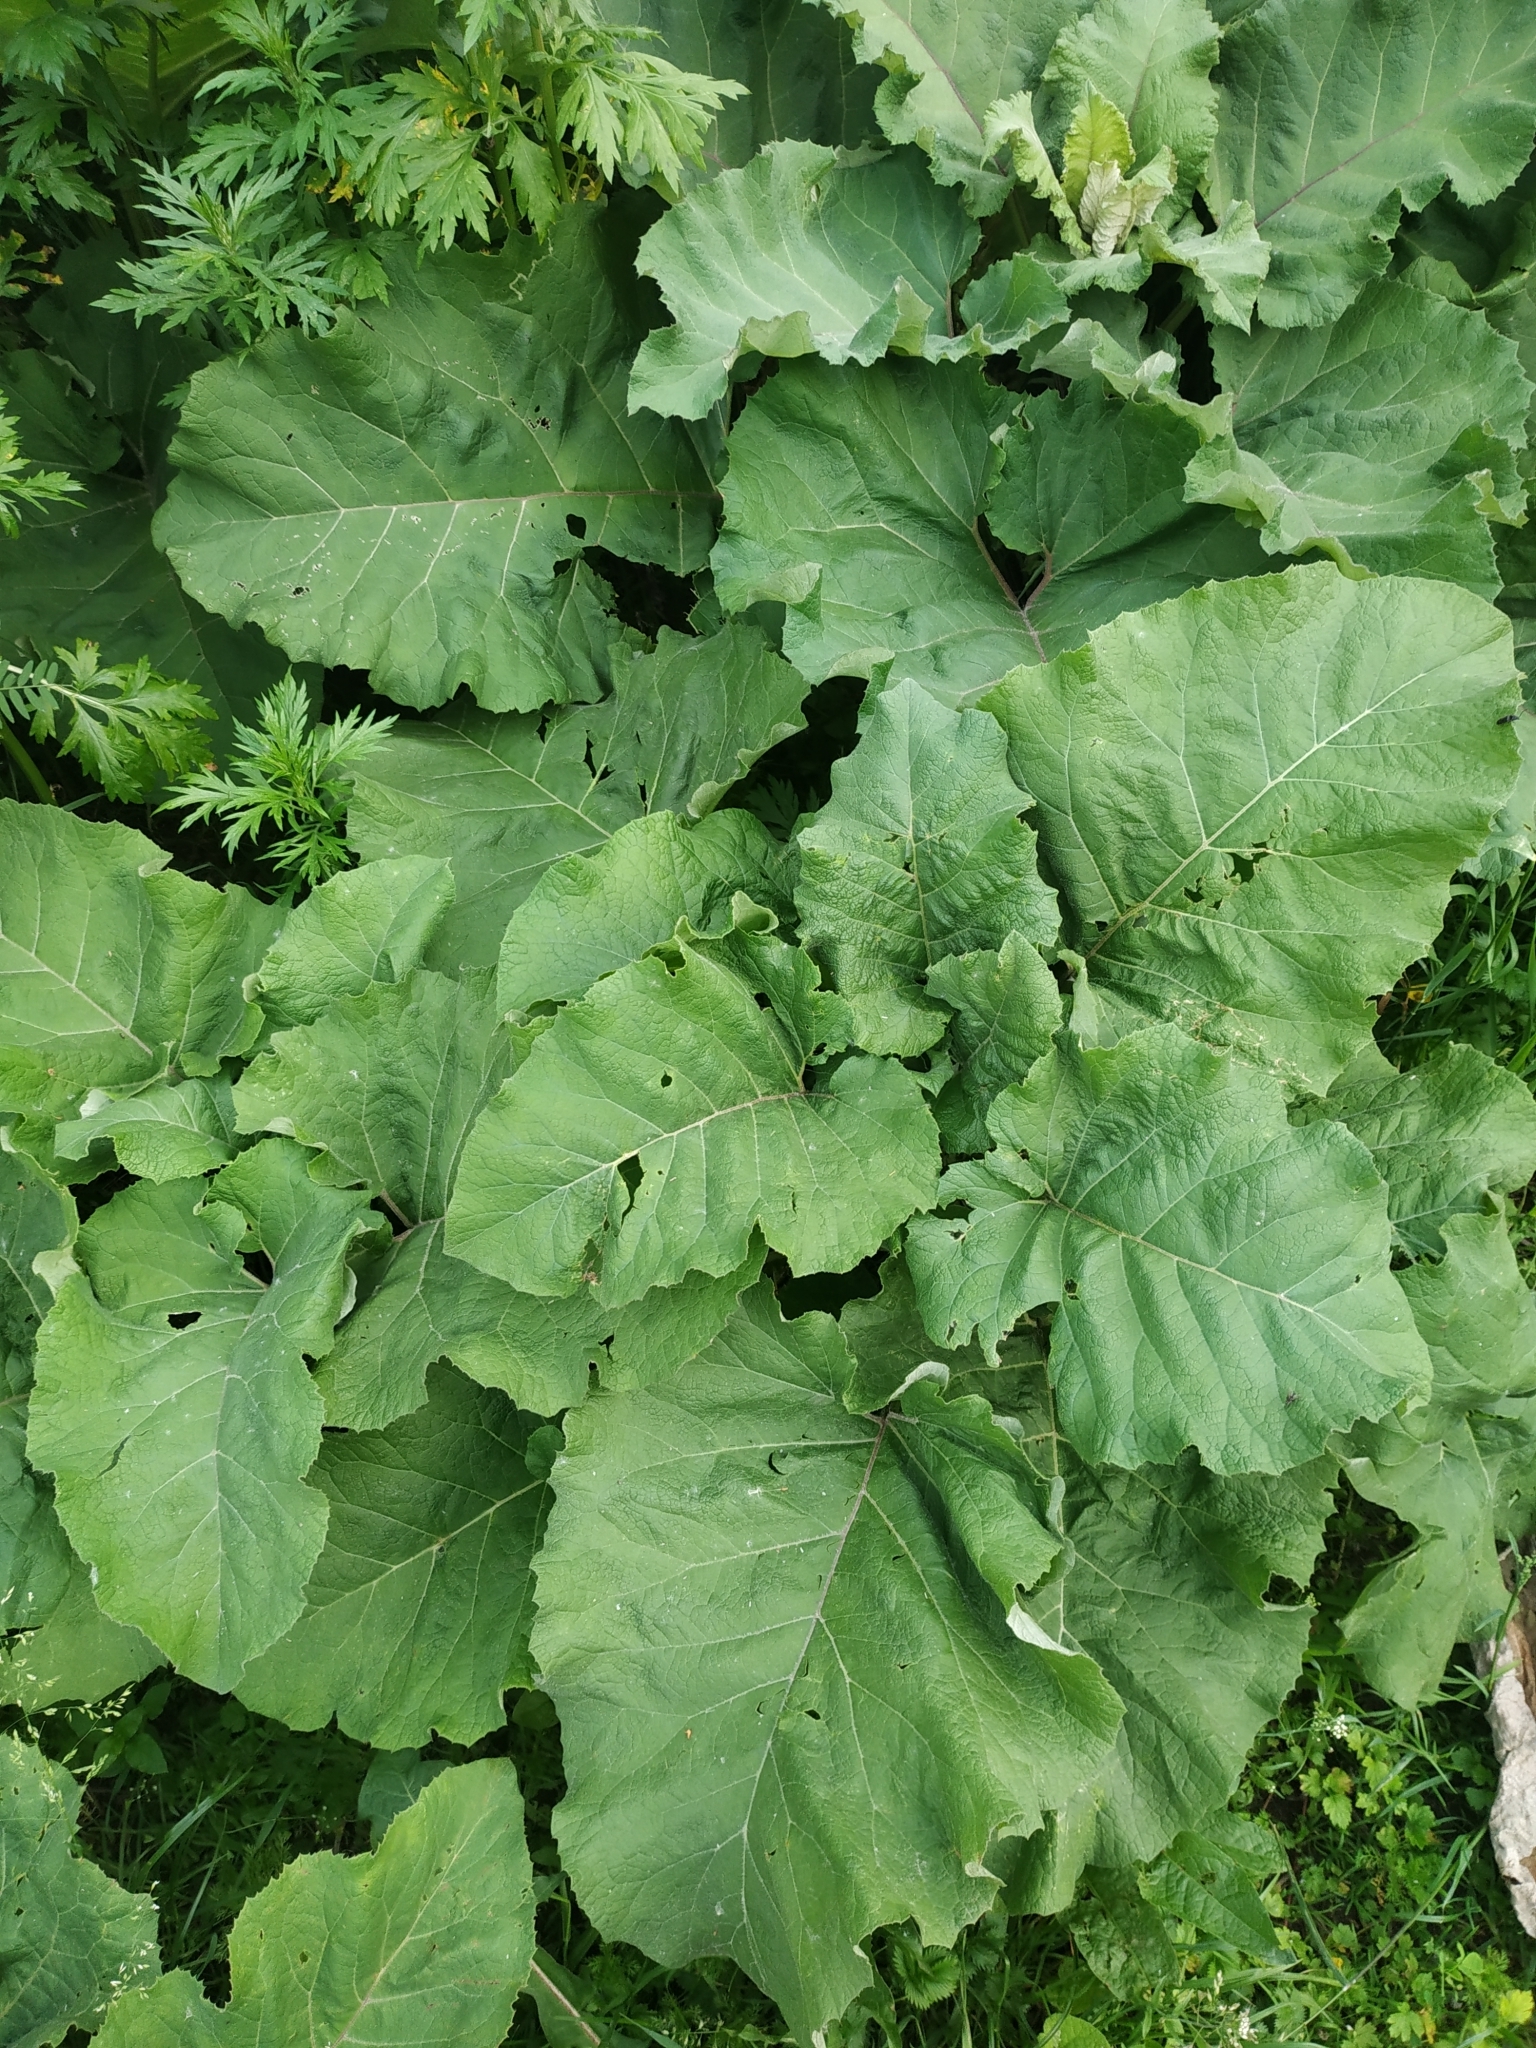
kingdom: Plantae
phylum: Tracheophyta
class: Magnoliopsida
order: Asterales
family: Asteraceae
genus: Arctium
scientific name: Arctium tomentosum
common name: Woolly burdock
